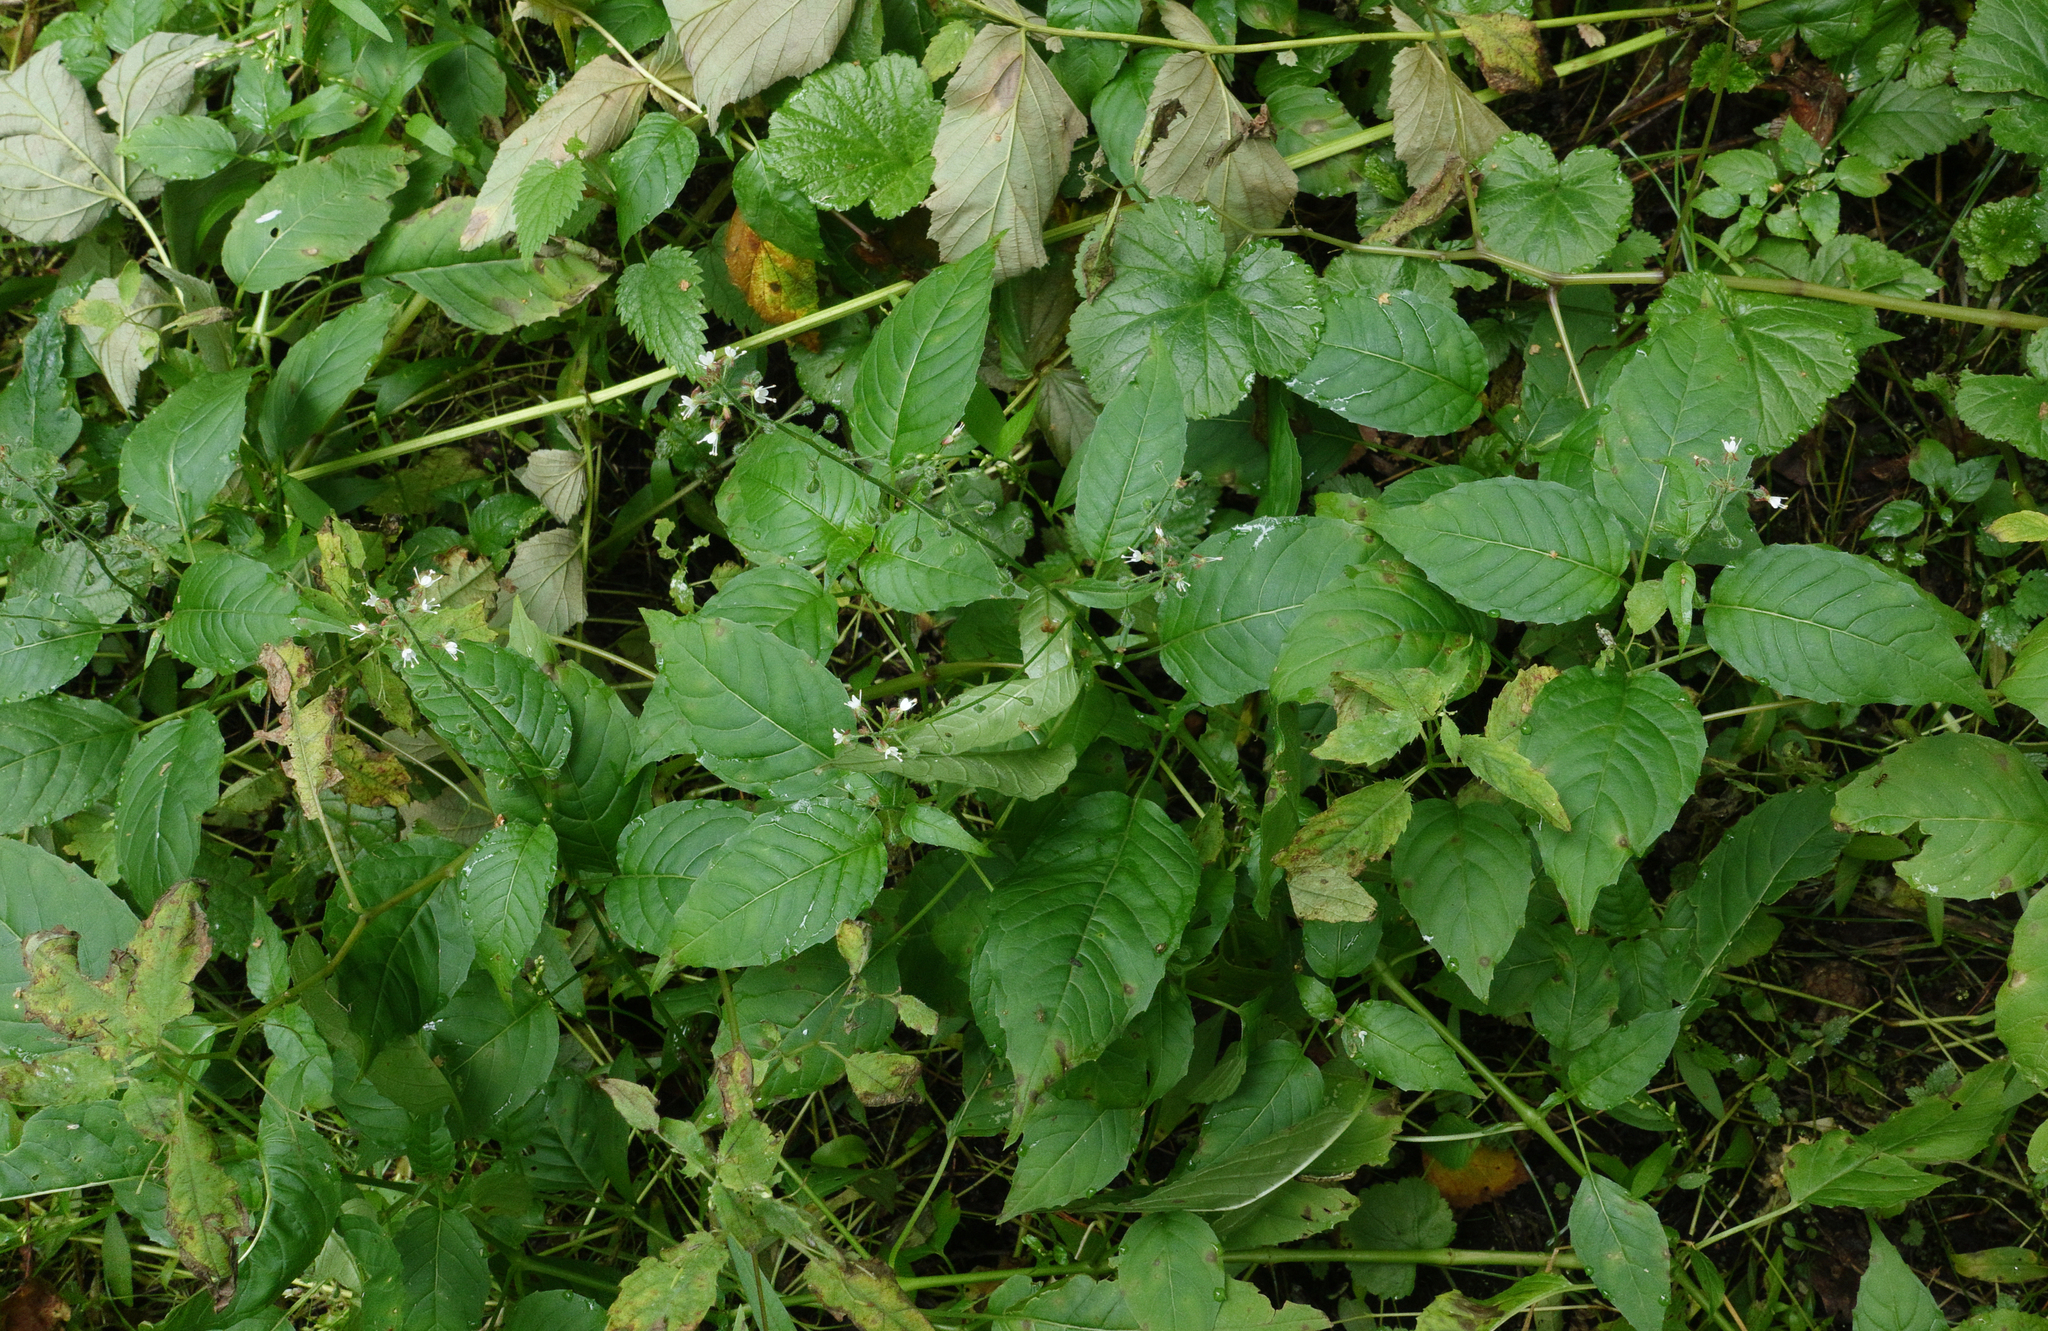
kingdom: Plantae
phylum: Tracheophyta
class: Magnoliopsida
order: Myrtales
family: Onagraceae
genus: Circaea
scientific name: Circaea lutetiana
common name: Enchanter's-nightshade
